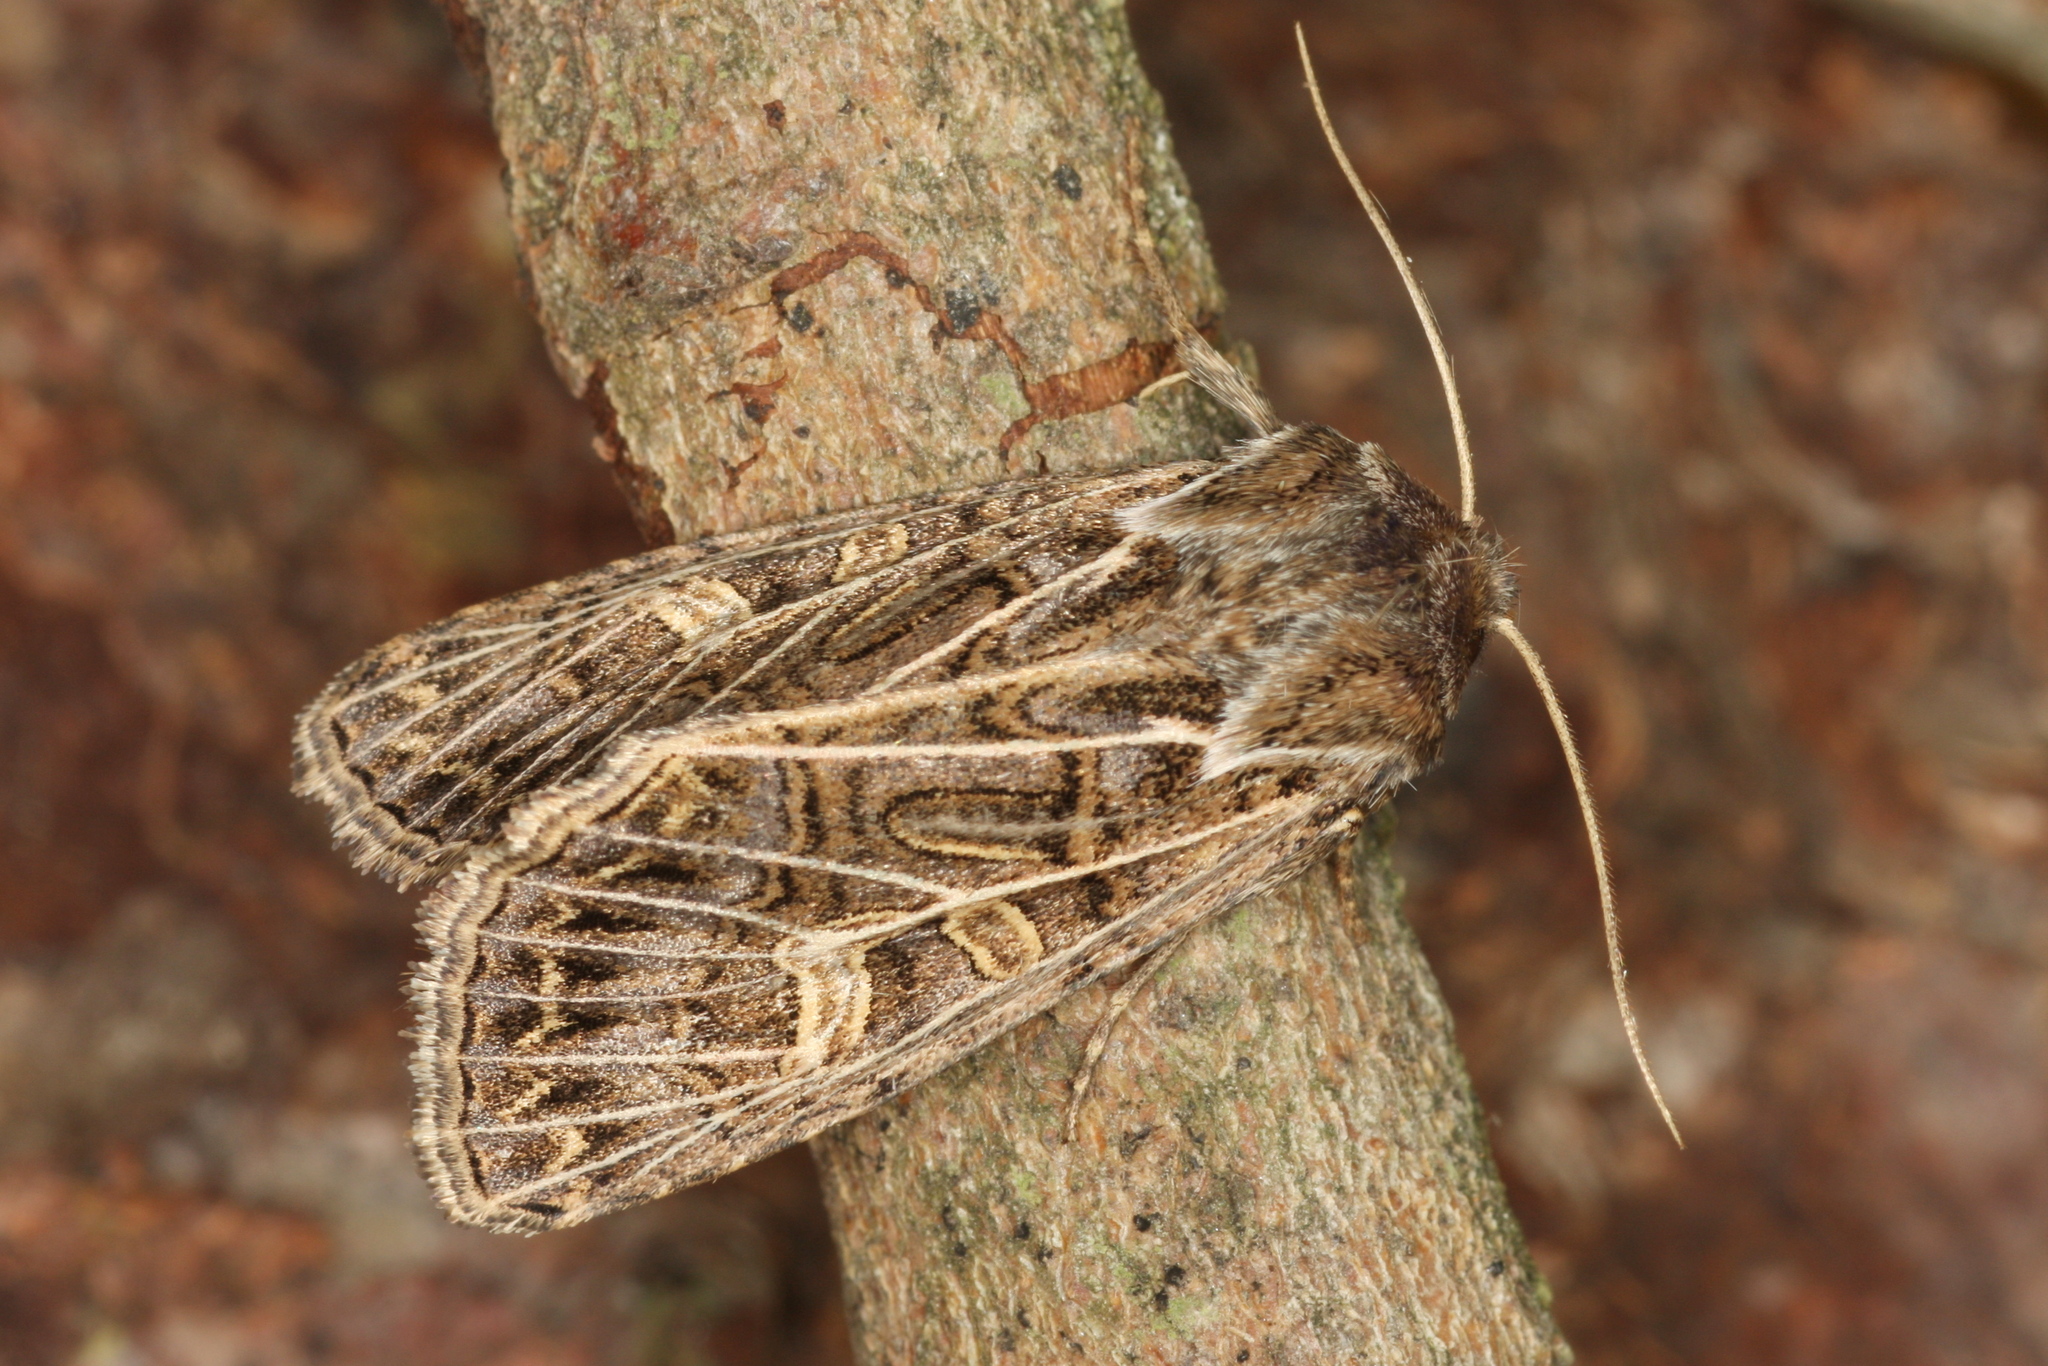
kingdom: Animalia
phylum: Arthropoda
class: Insecta
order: Lepidoptera
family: Noctuidae
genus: Tholera
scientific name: Tholera decimalis
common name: Feathered gothic
